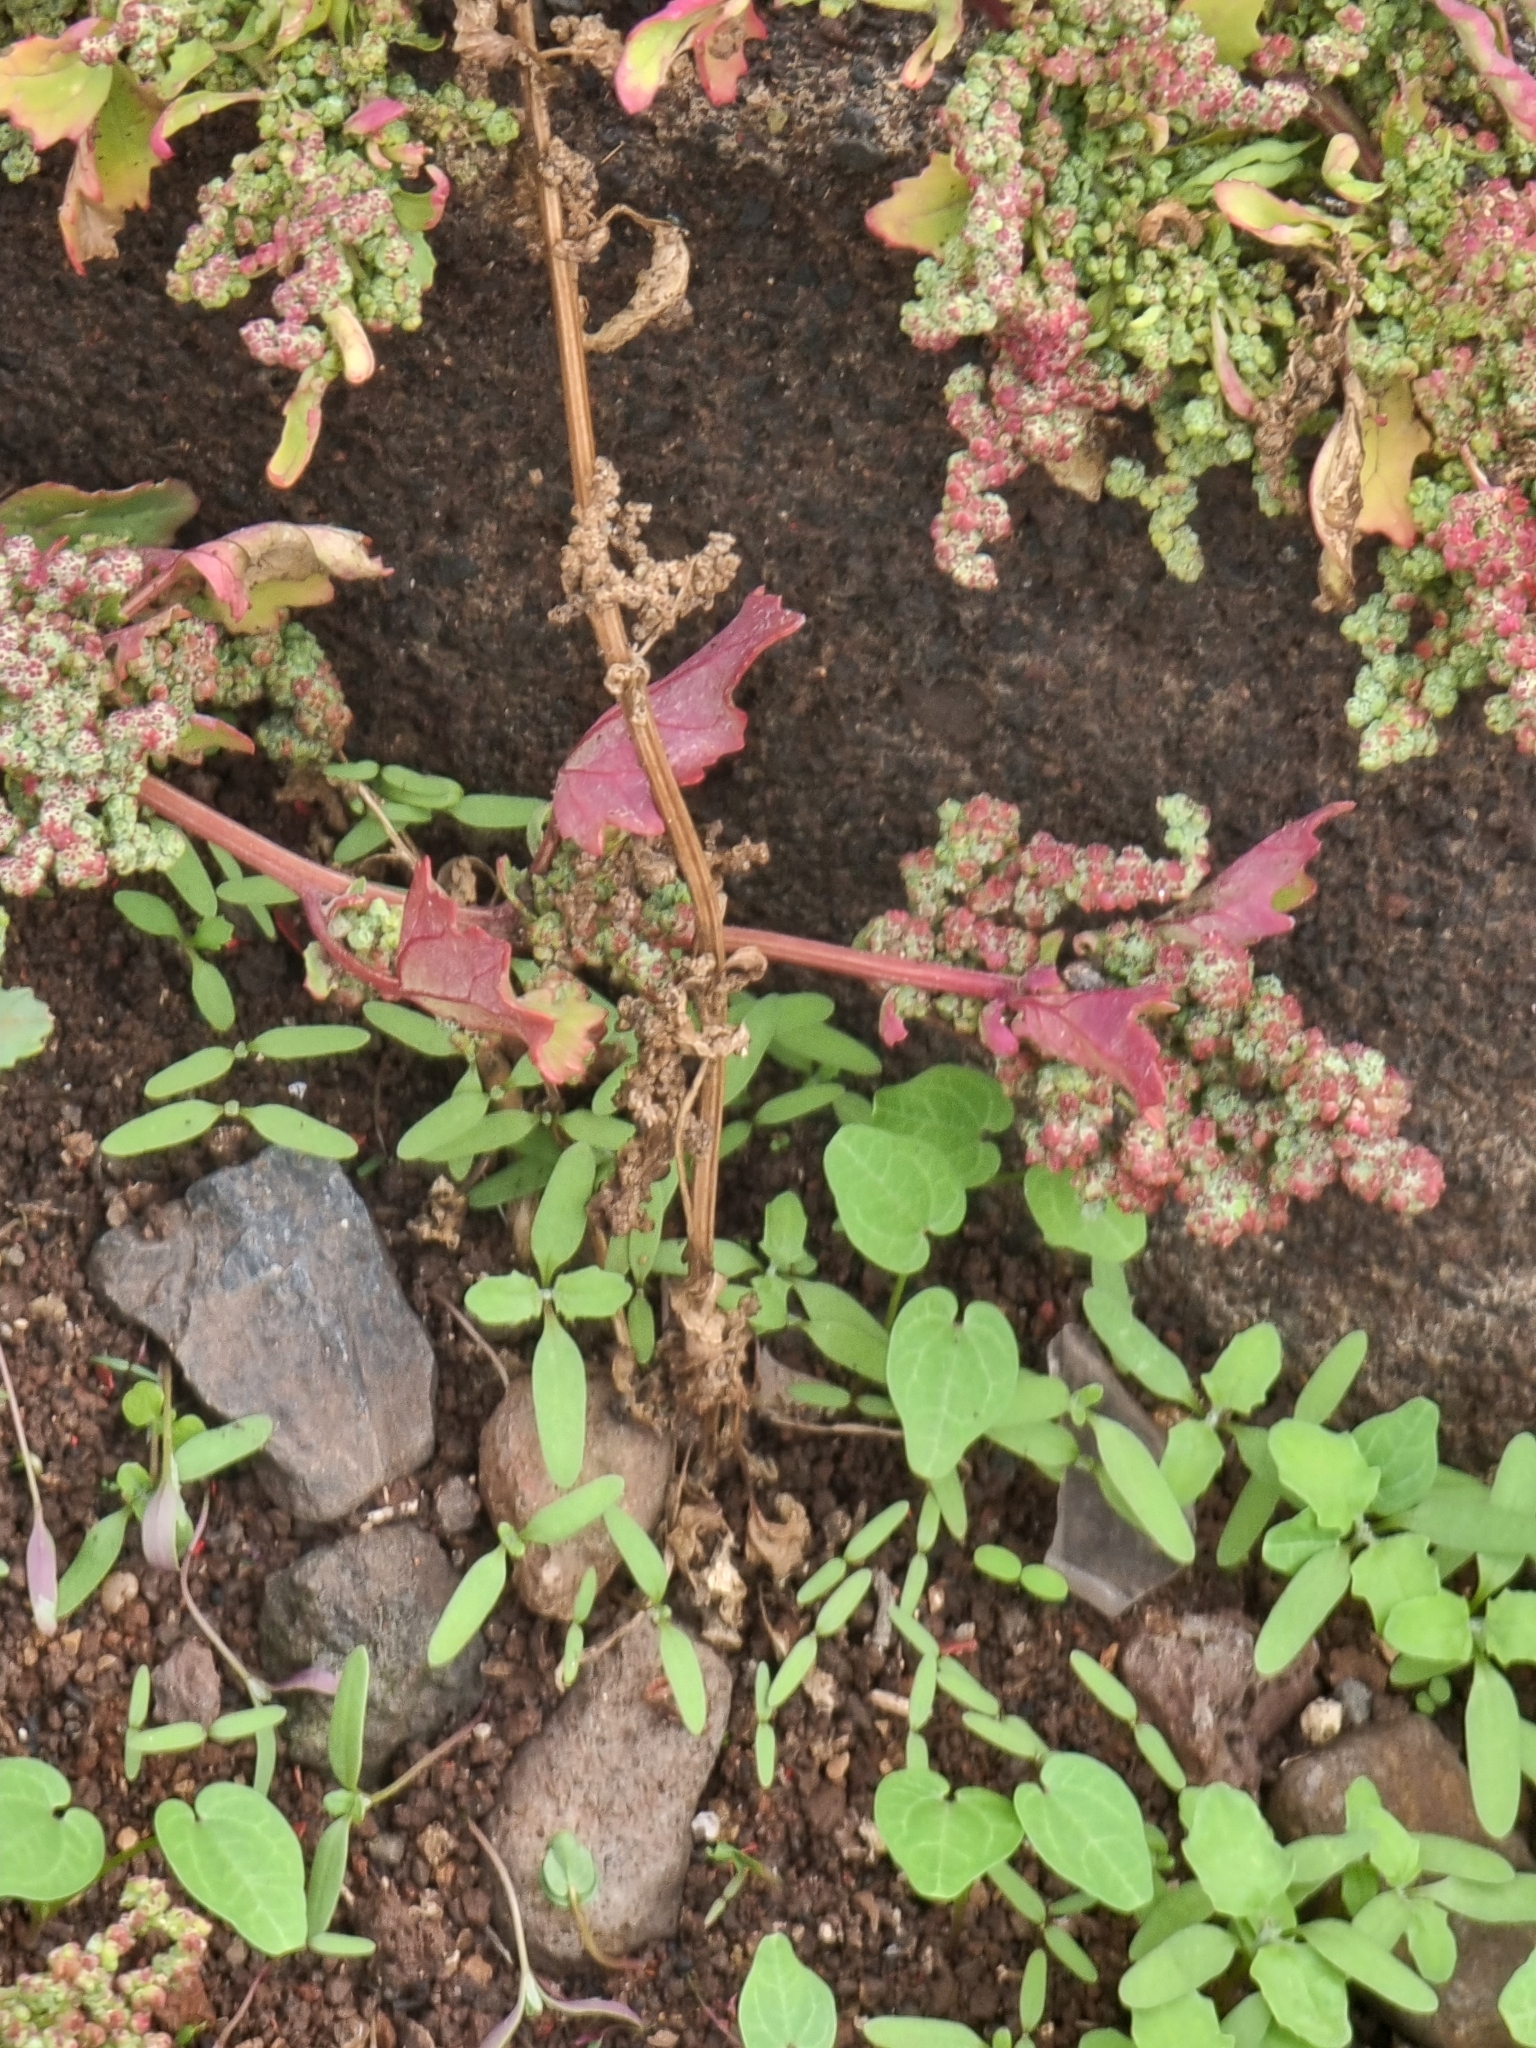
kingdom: Plantae
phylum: Tracheophyta
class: Magnoliopsida
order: Caryophyllales
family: Amaranthaceae
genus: Chenopodiastrum
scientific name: Chenopodiastrum murale
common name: Sowbane
